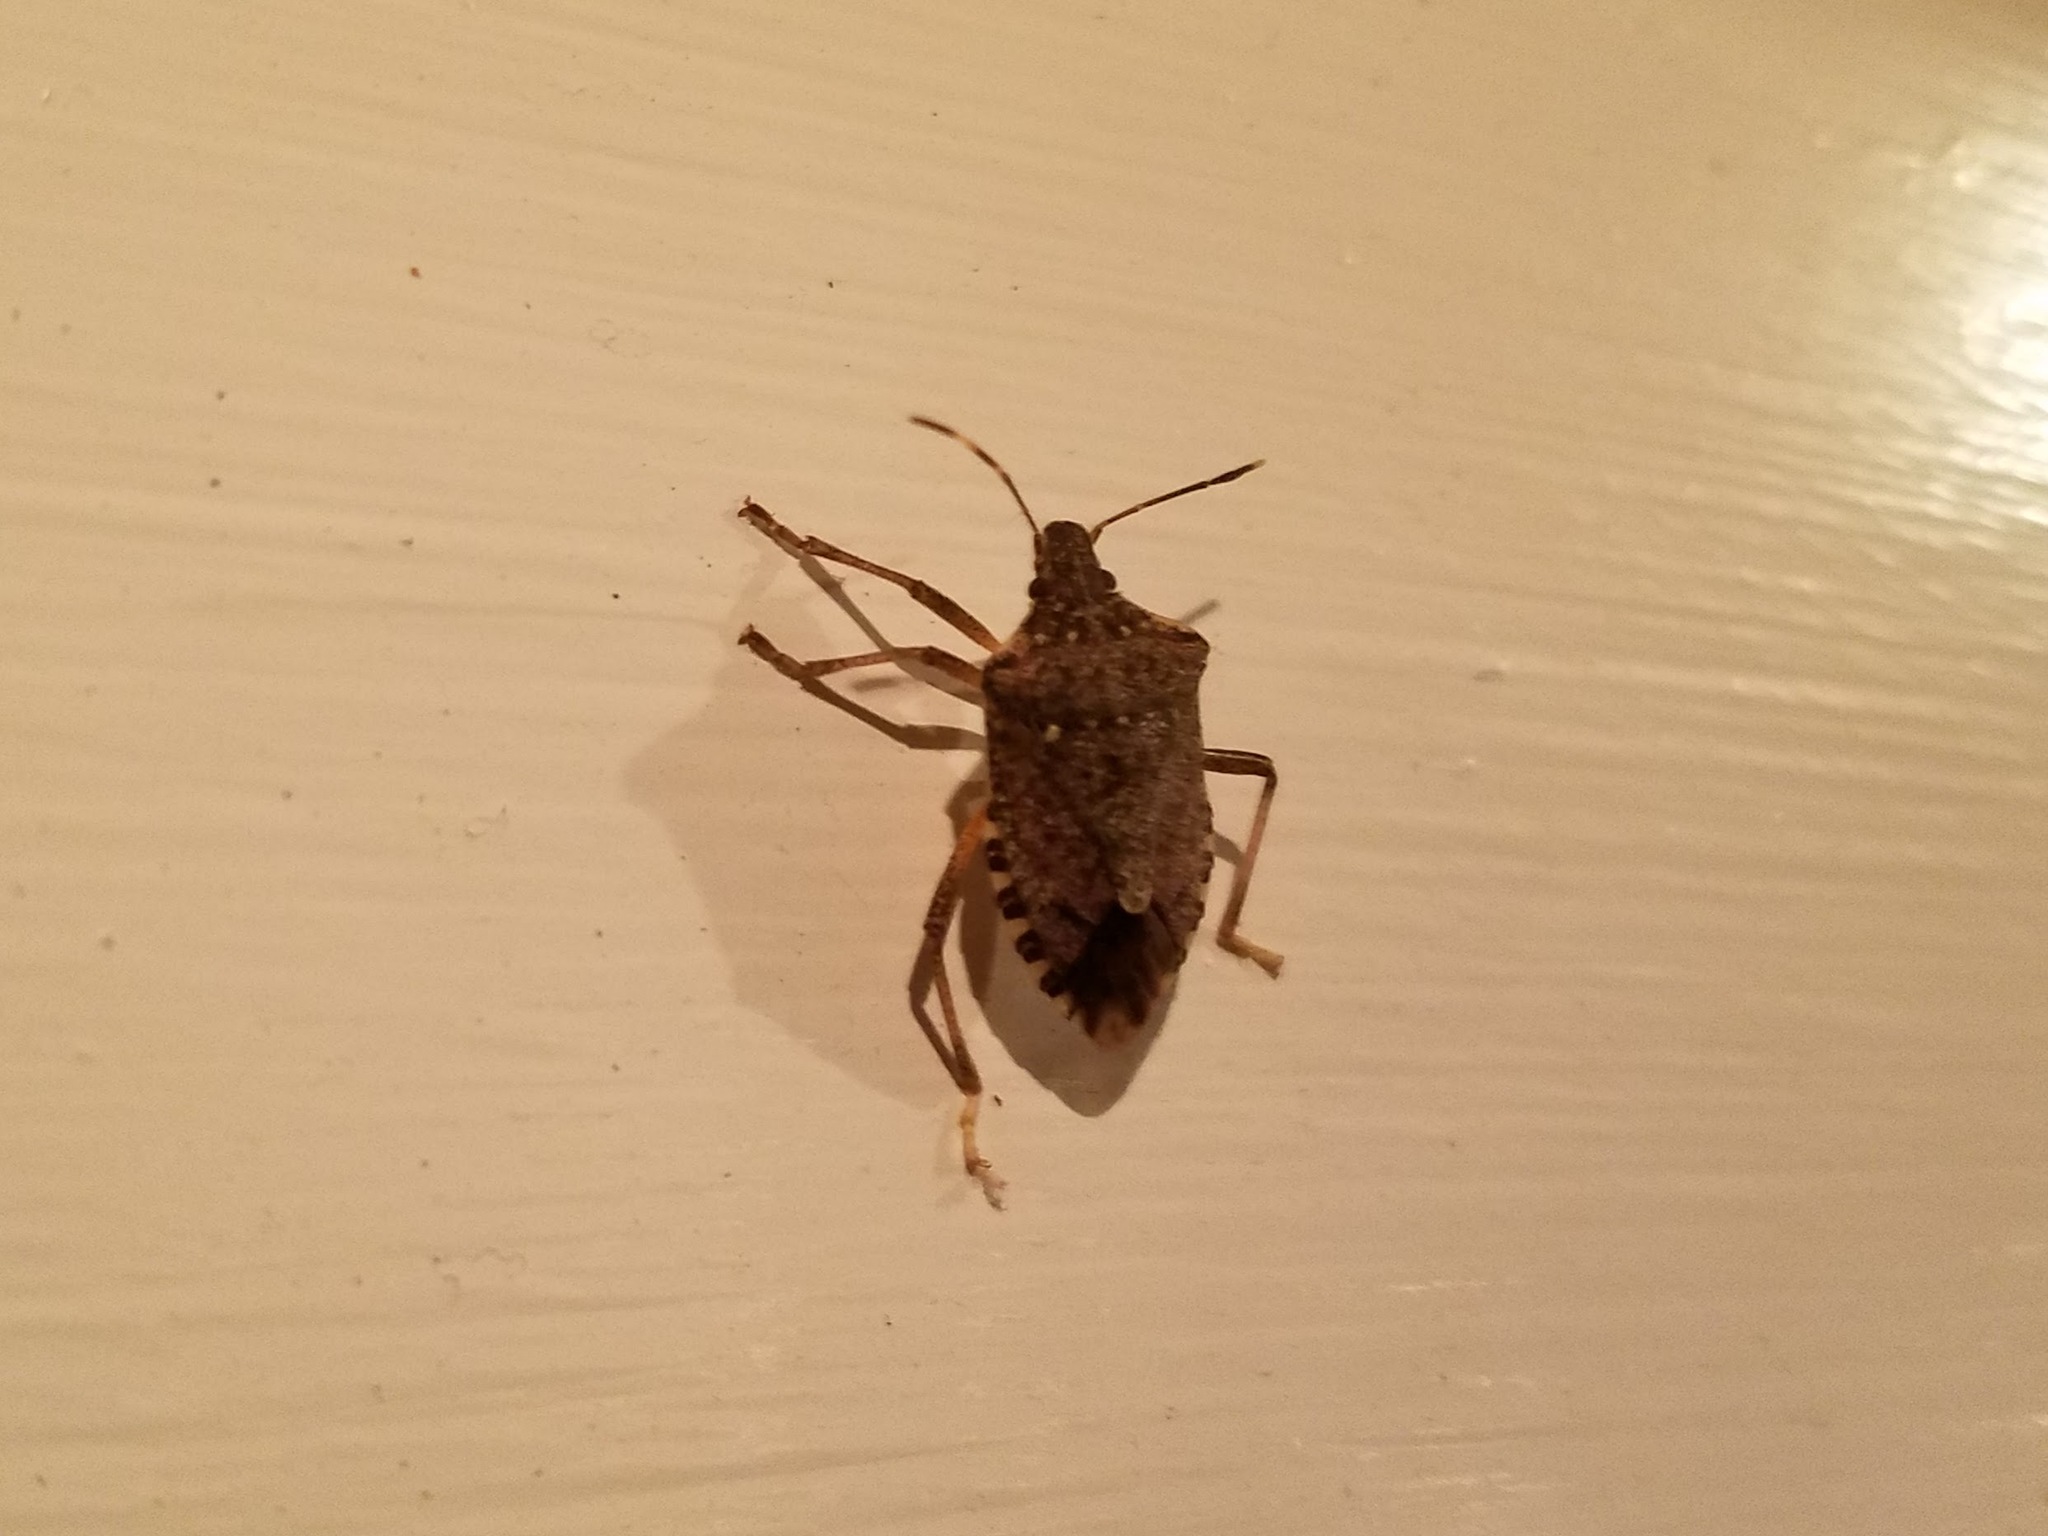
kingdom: Animalia
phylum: Arthropoda
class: Insecta
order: Hemiptera
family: Pentatomidae
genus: Halyomorpha
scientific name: Halyomorpha halys
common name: Brown marmorated stink bug
